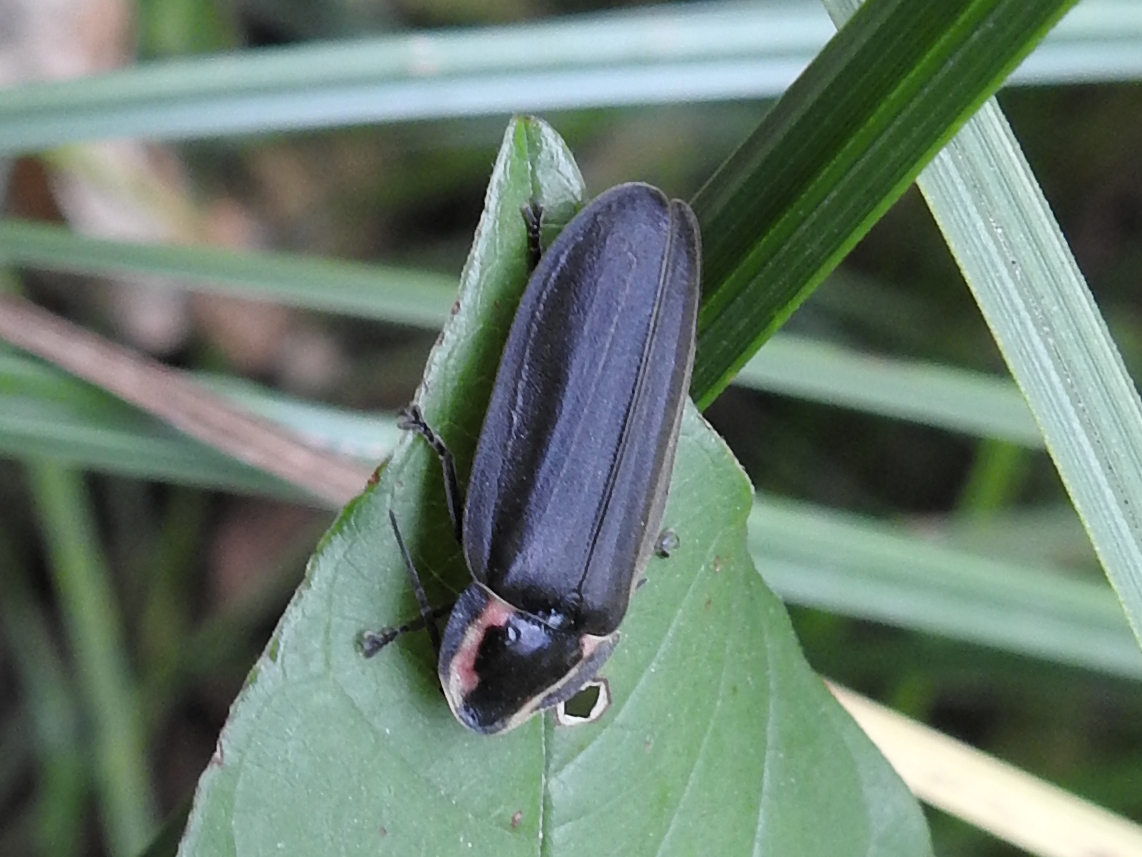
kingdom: Animalia
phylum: Arthropoda
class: Insecta
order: Coleoptera
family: Lampyridae
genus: Photinus
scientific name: Photinus corrusca
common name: Winter firefly
